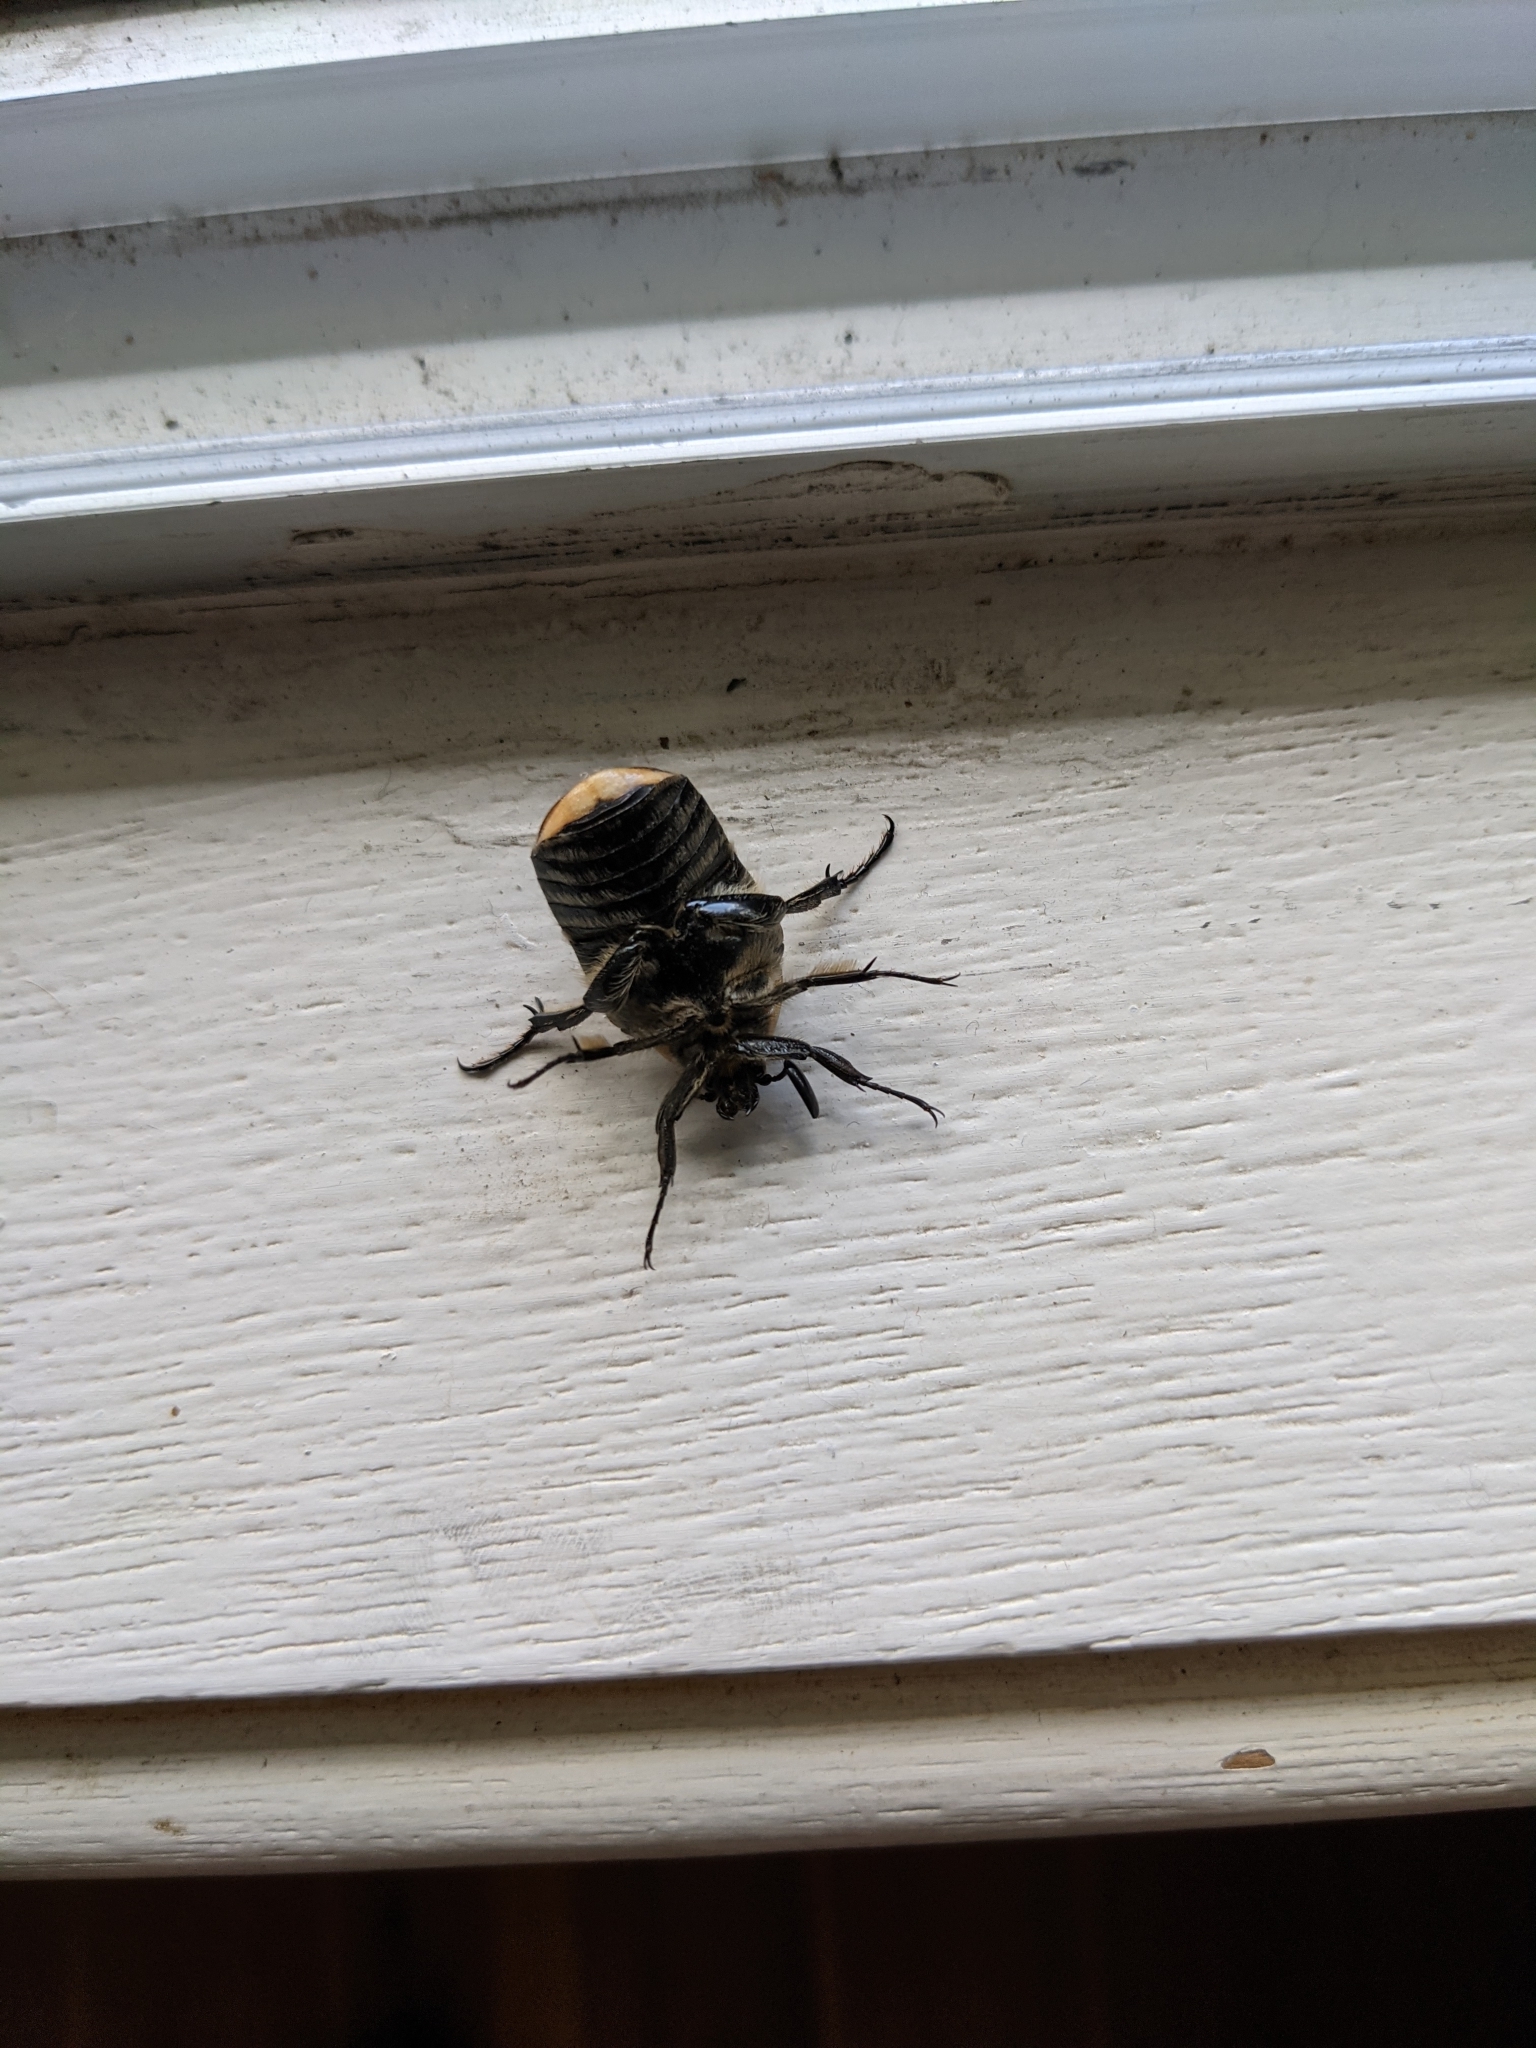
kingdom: Animalia
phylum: Arthropoda
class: Insecta
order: Coleoptera
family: Scarabaeidae
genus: Chondropyga
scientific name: Chondropyga dorsalis
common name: Cowboy beetle
